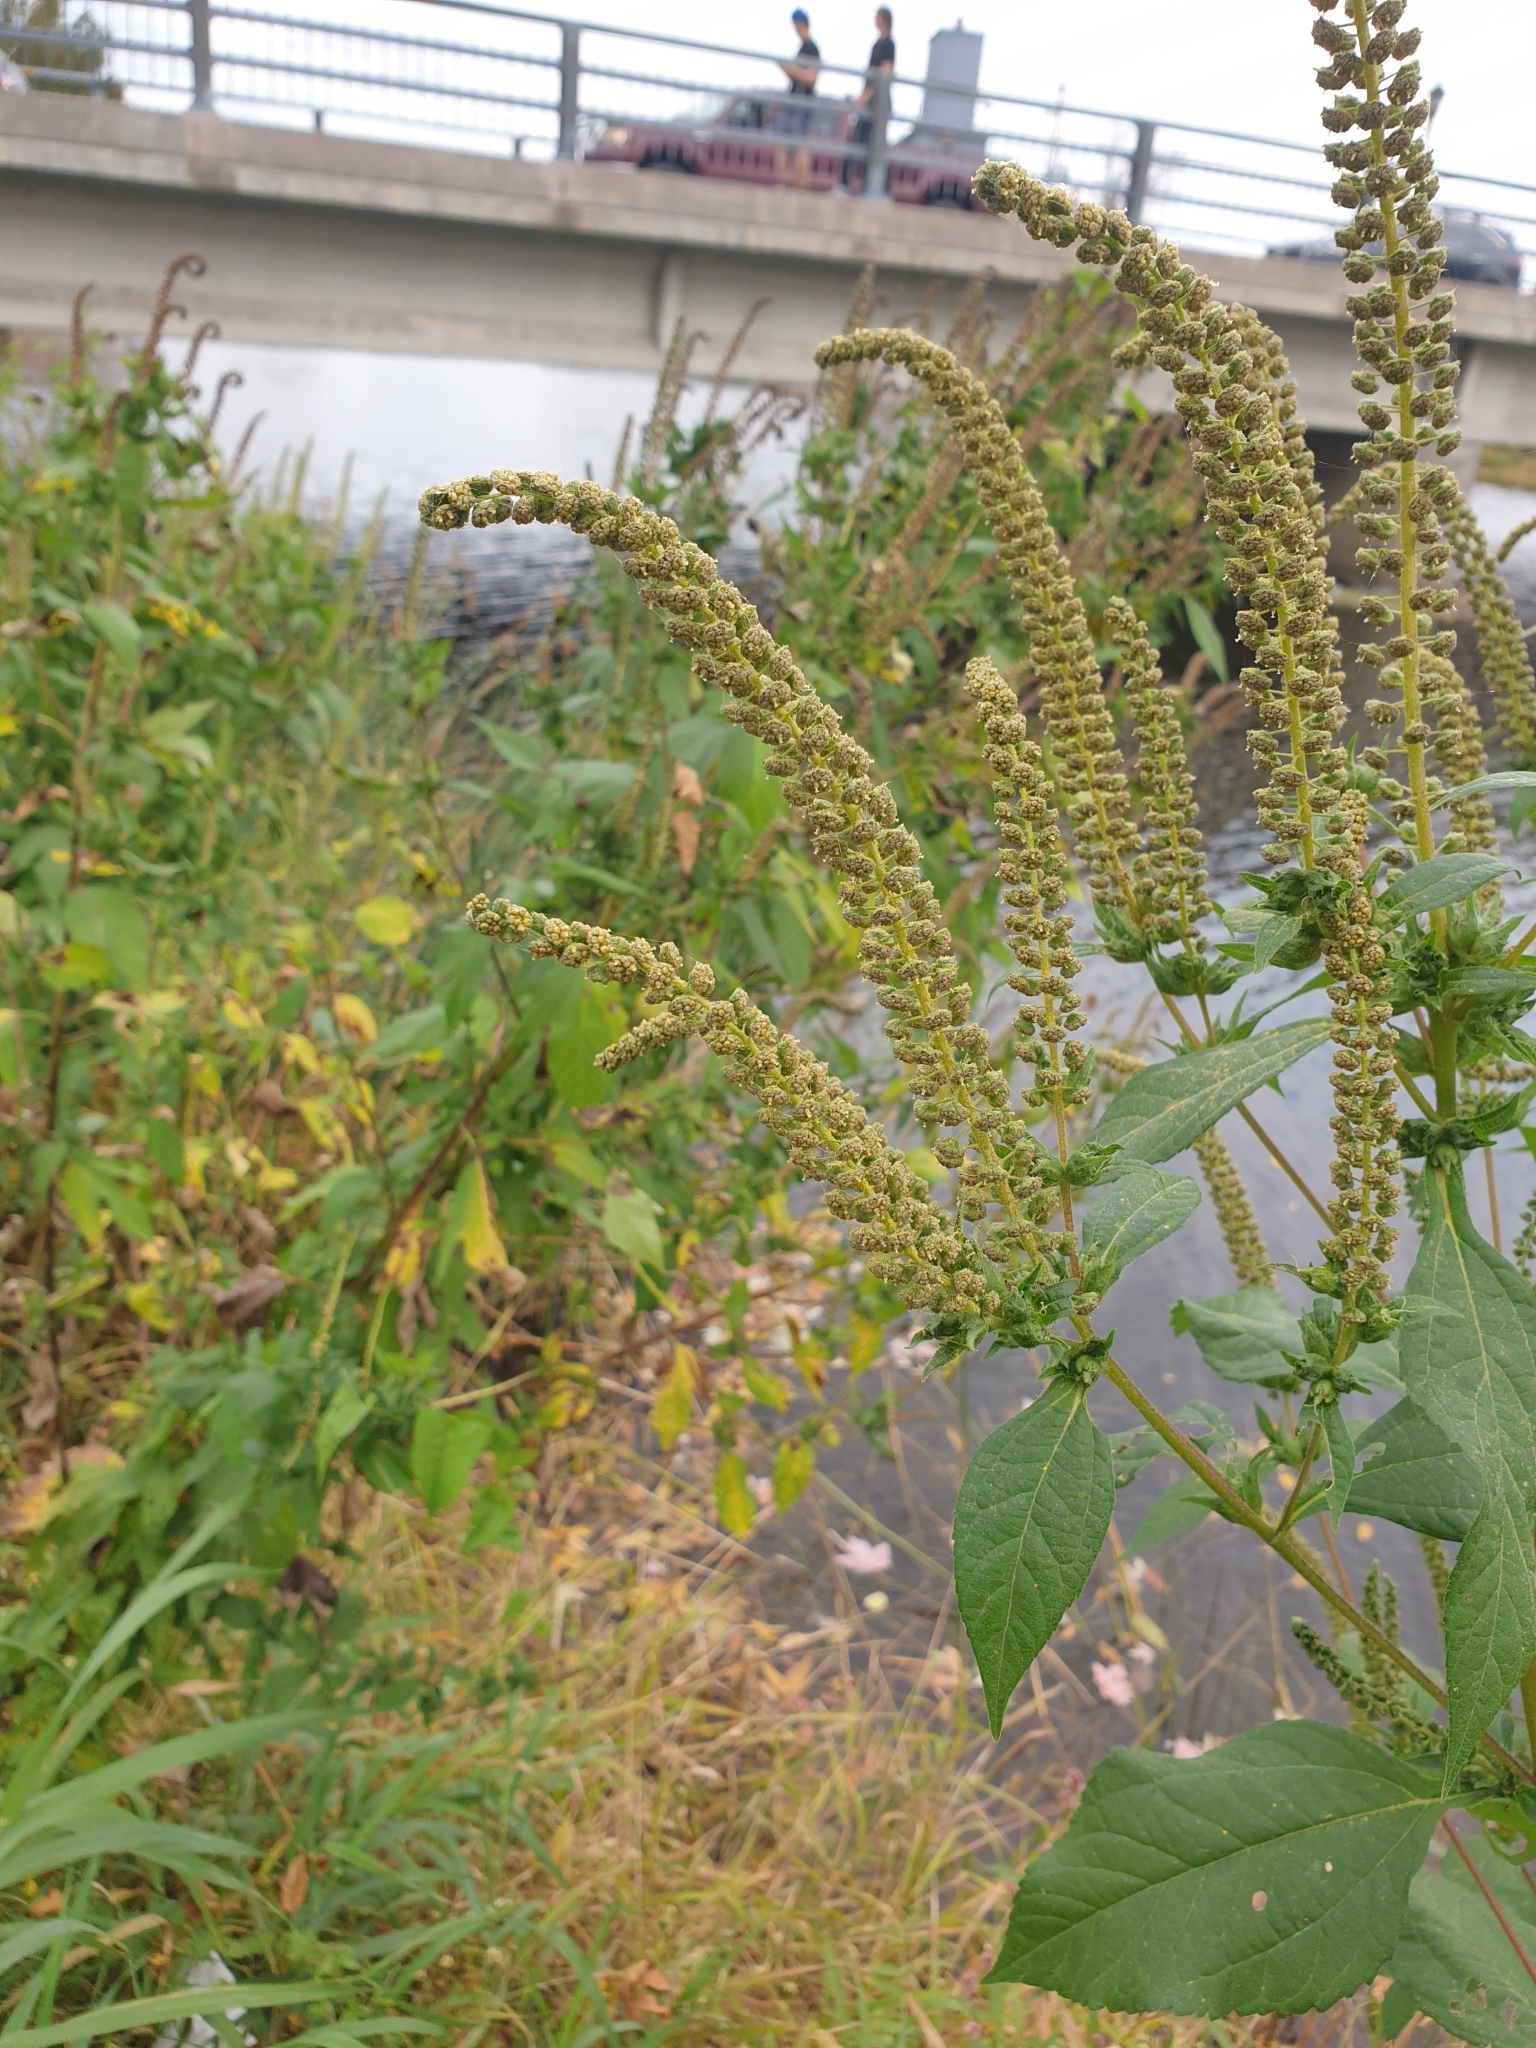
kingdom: Plantae
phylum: Tracheophyta
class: Magnoliopsida
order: Asterales
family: Asteraceae
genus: Ambrosia
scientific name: Ambrosia trifida
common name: Giant ragweed
